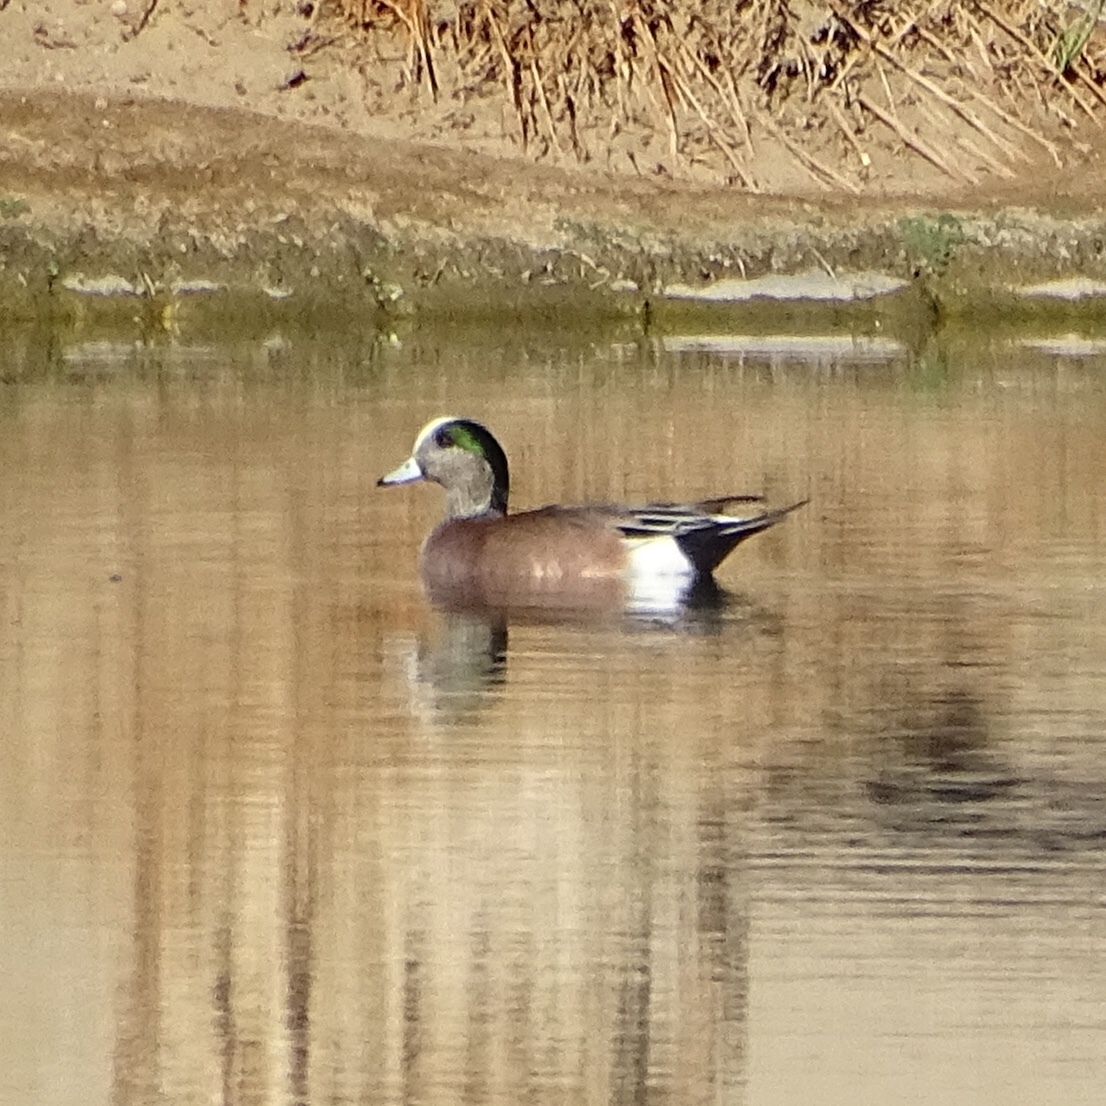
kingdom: Animalia
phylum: Chordata
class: Aves
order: Anseriformes
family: Anatidae
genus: Mareca
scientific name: Mareca americana
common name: American wigeon
